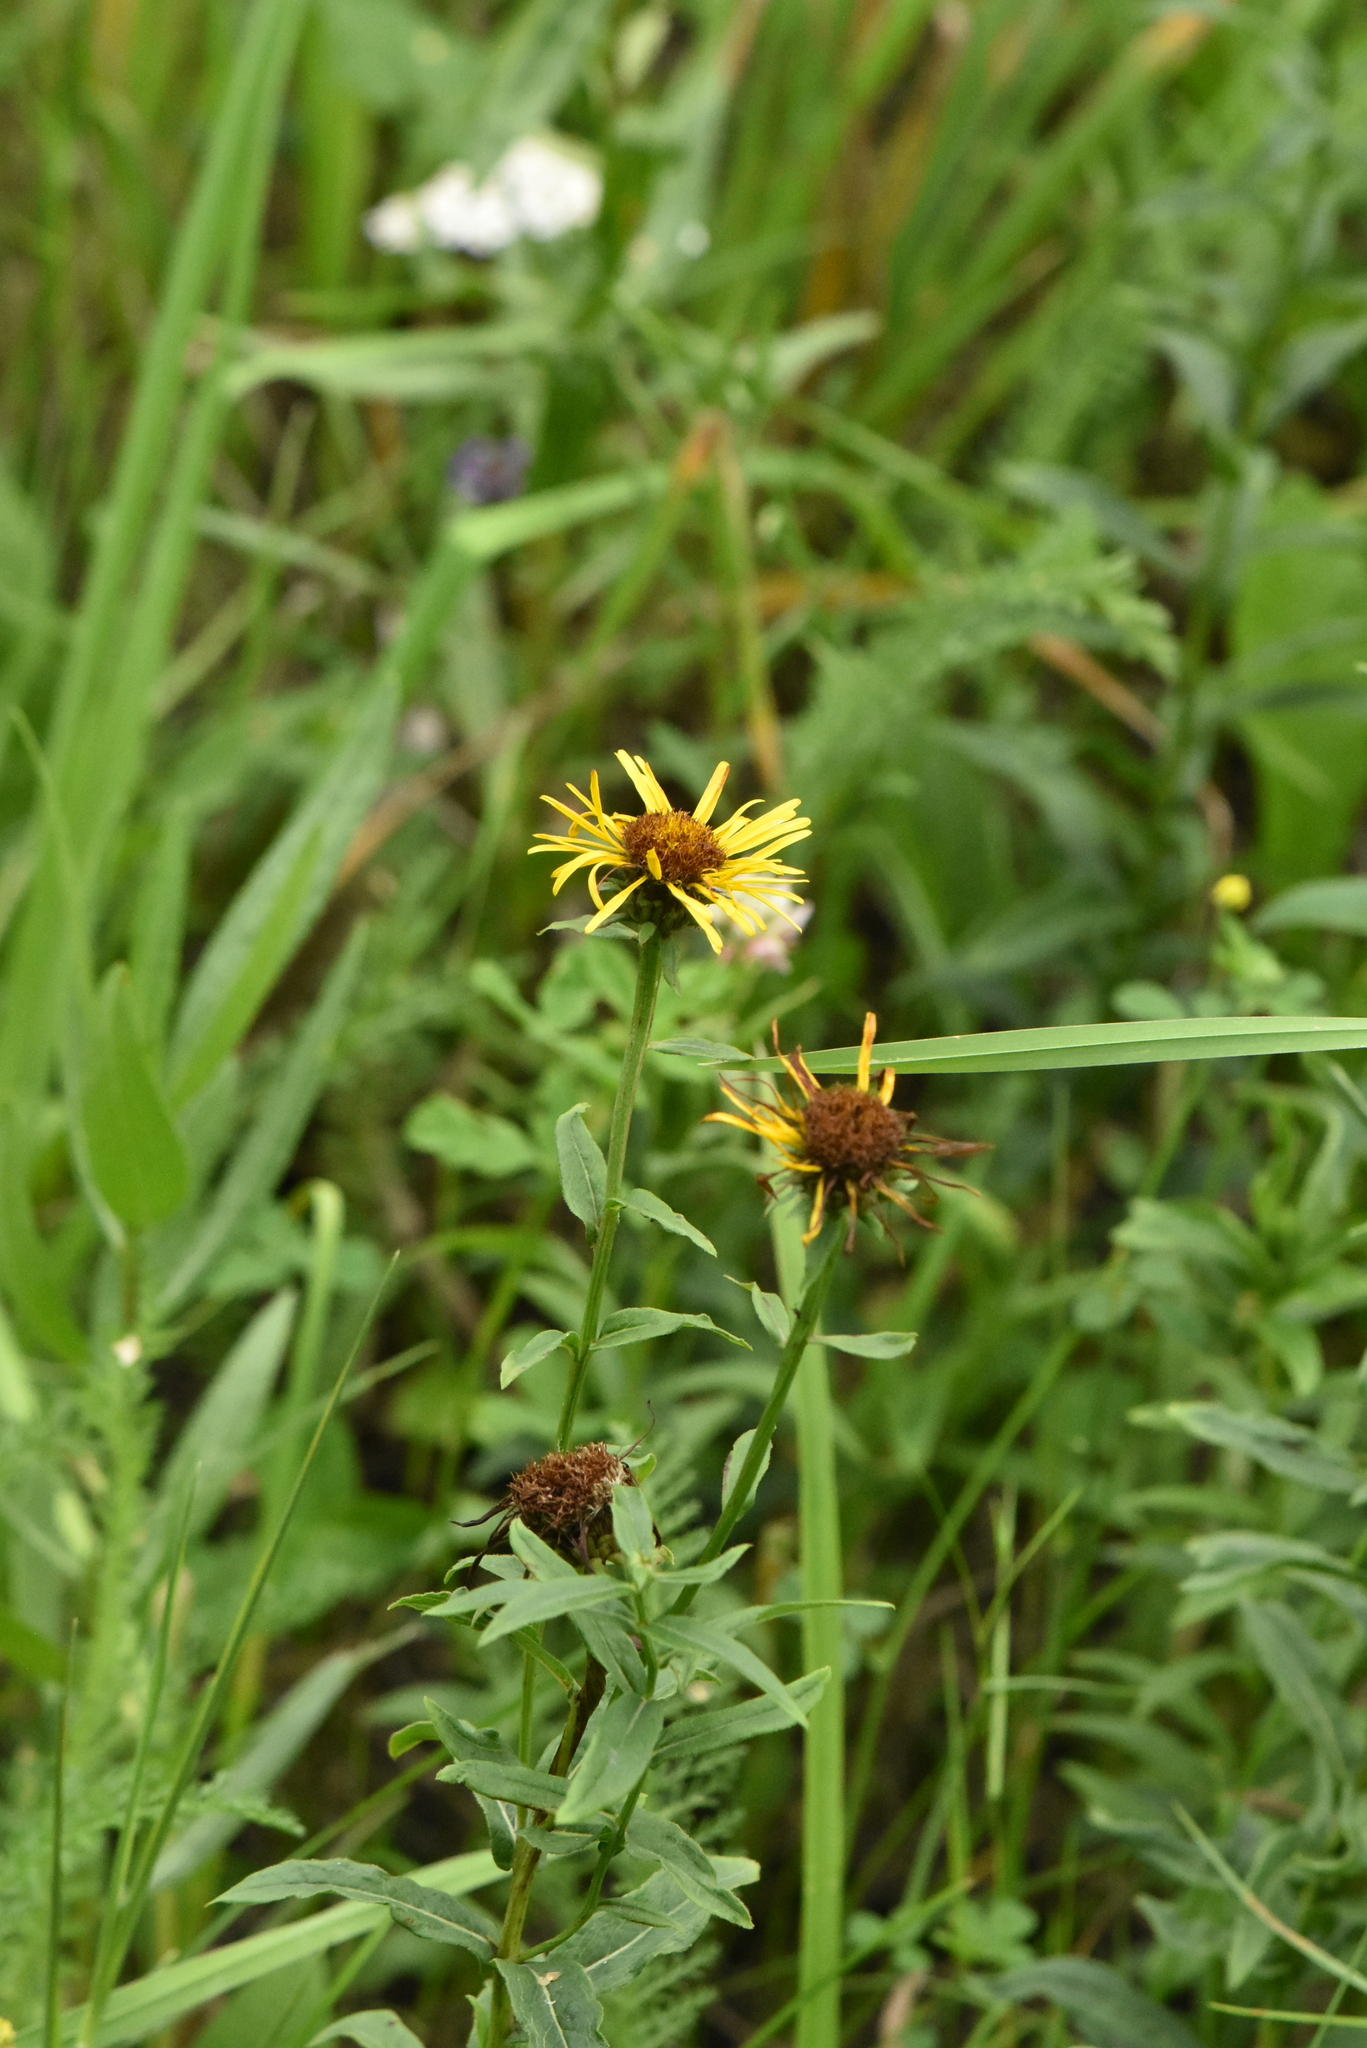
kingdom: Plantae
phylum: Tracheophyta
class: Magnoliopsida
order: Asterales
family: Asteraceae
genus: Pentanema
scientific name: Pentanema salicinum
